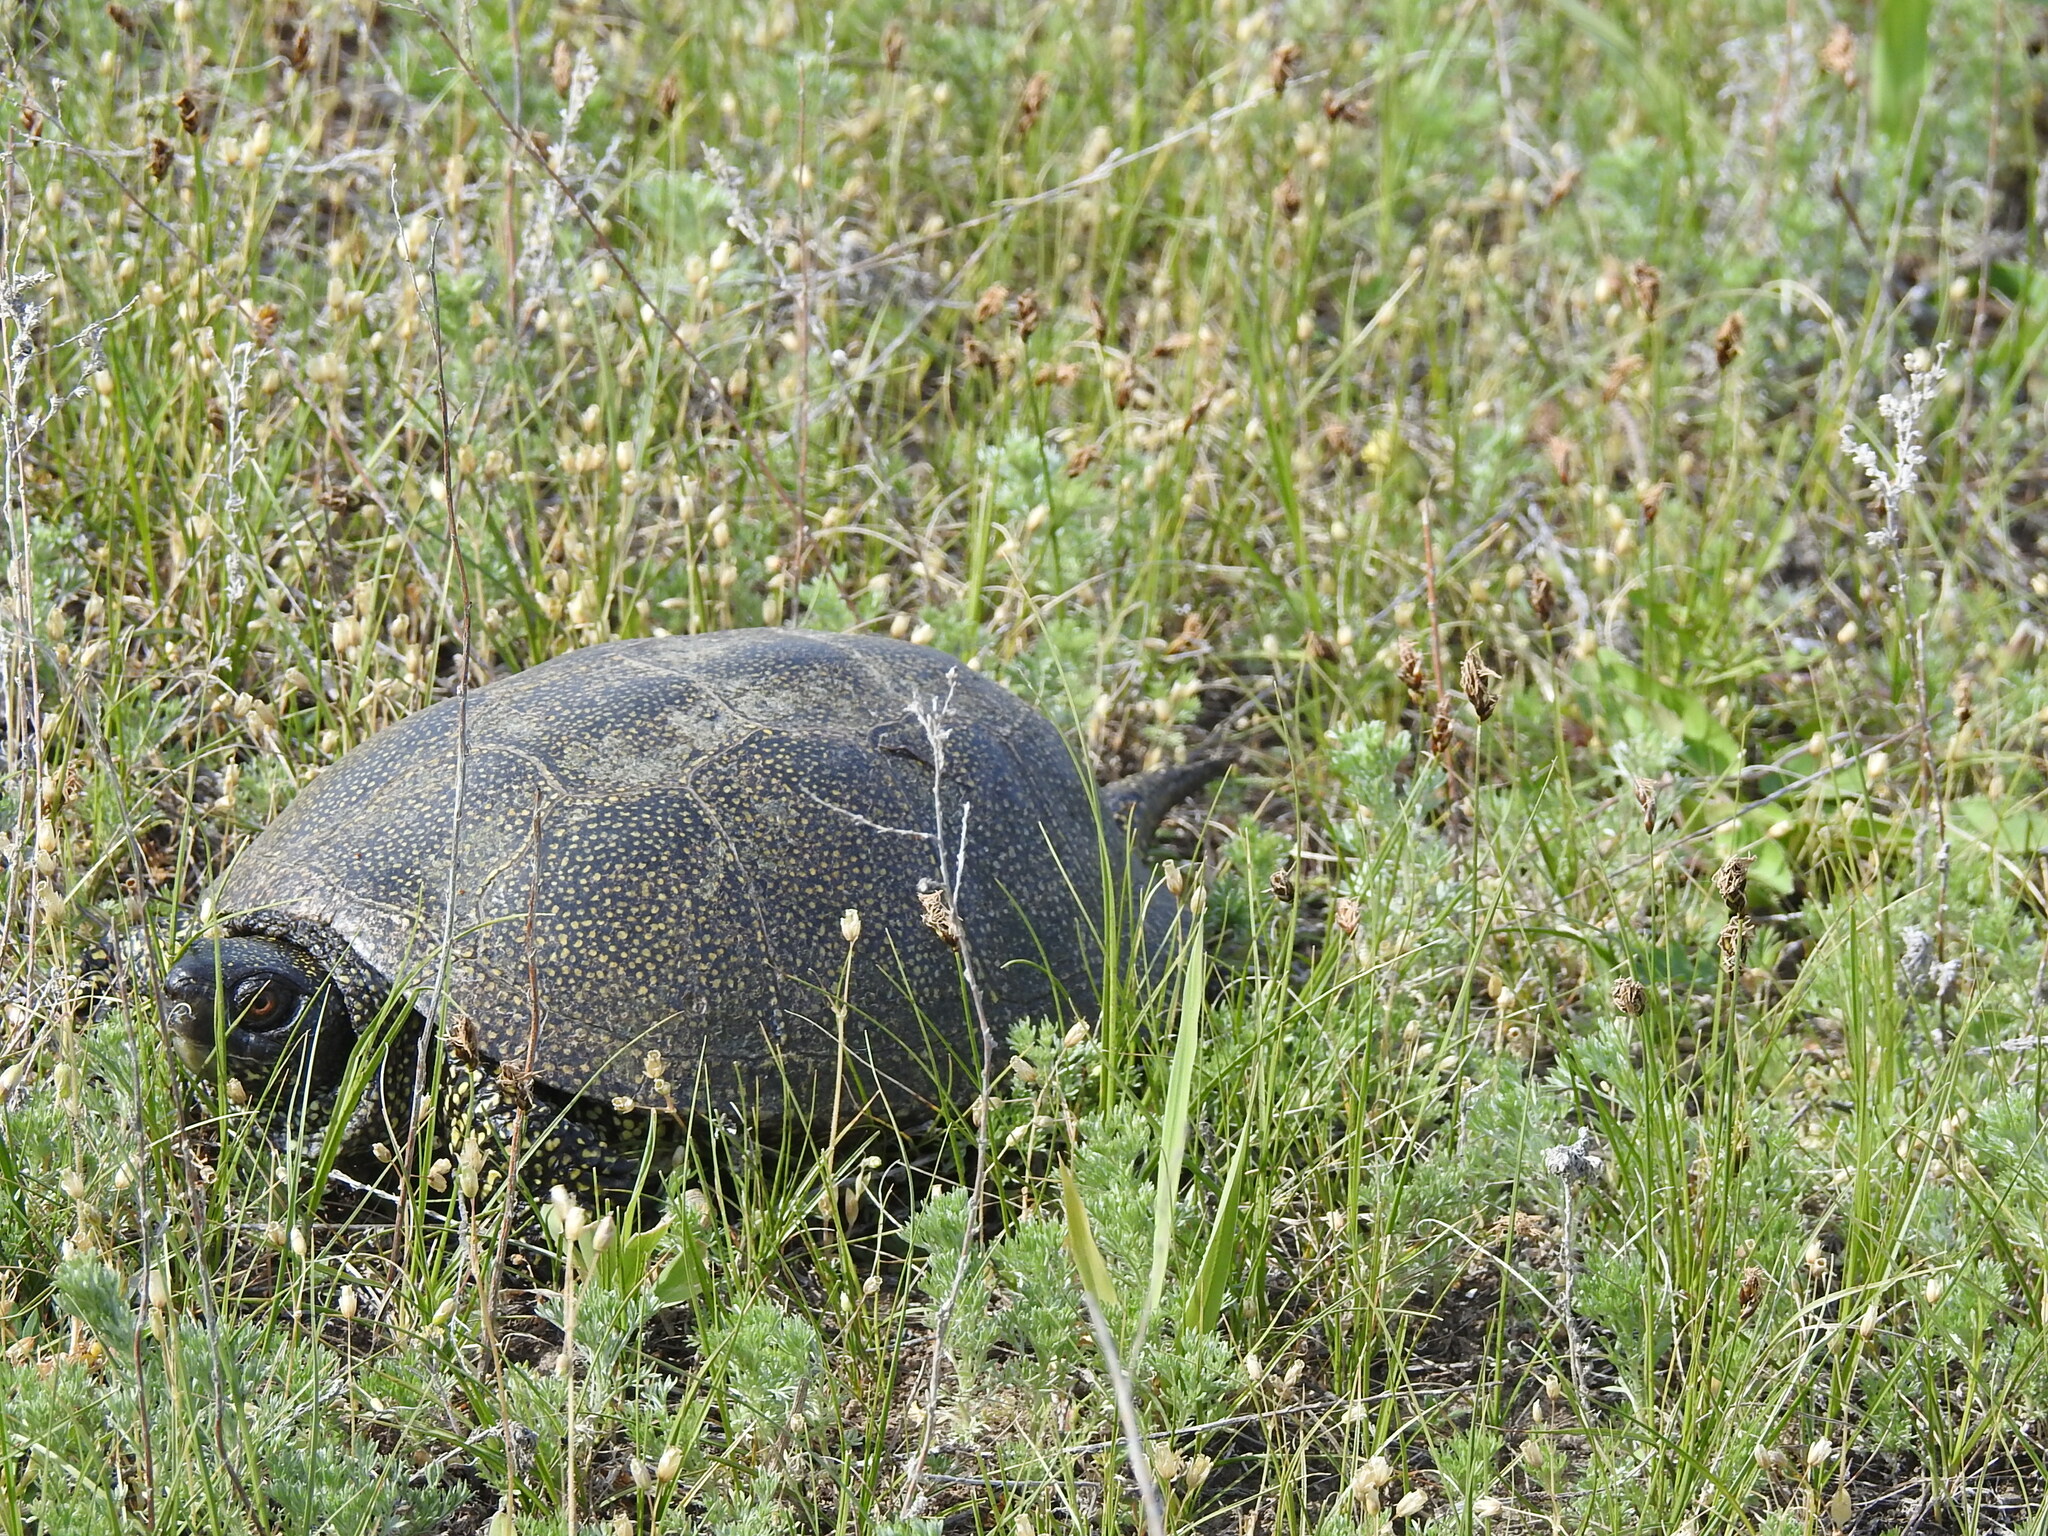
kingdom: Animalia
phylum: Chordata
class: Testudines
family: Emydidae
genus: Emys
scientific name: Emys orbicularis
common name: European pond turtle
